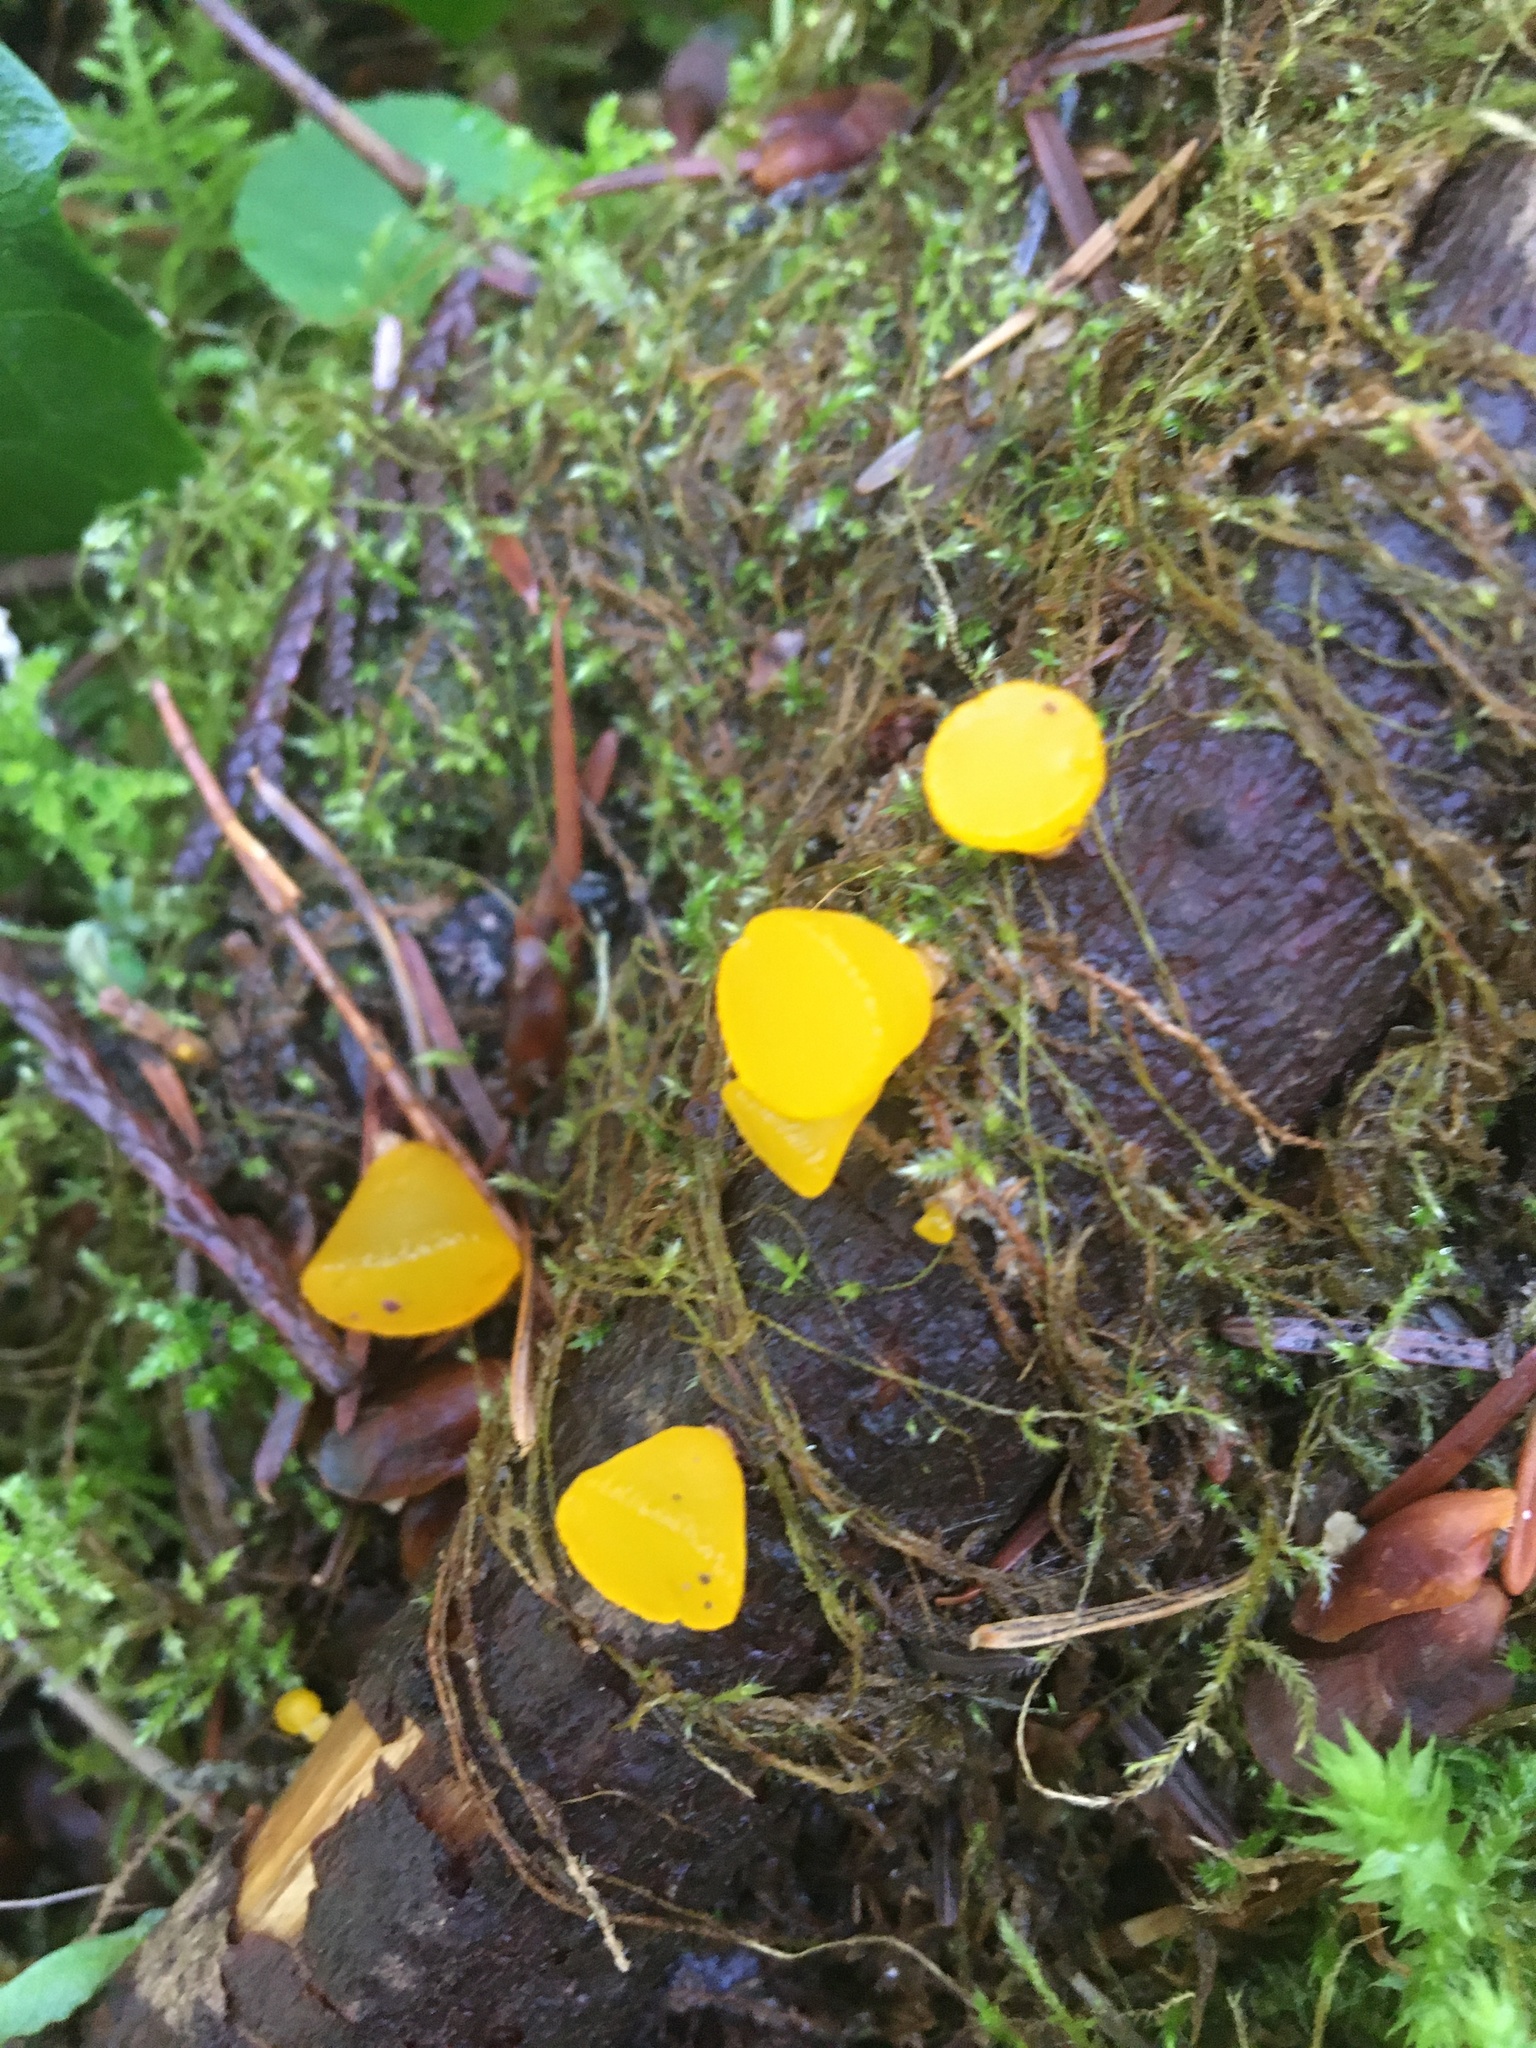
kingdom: Fungi
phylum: Basidiomycota
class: Dacrymycetes
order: Dacrymycetales
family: Dacrymycetaceae
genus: Guepiniopsis
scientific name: Guepiniopsis alpina
